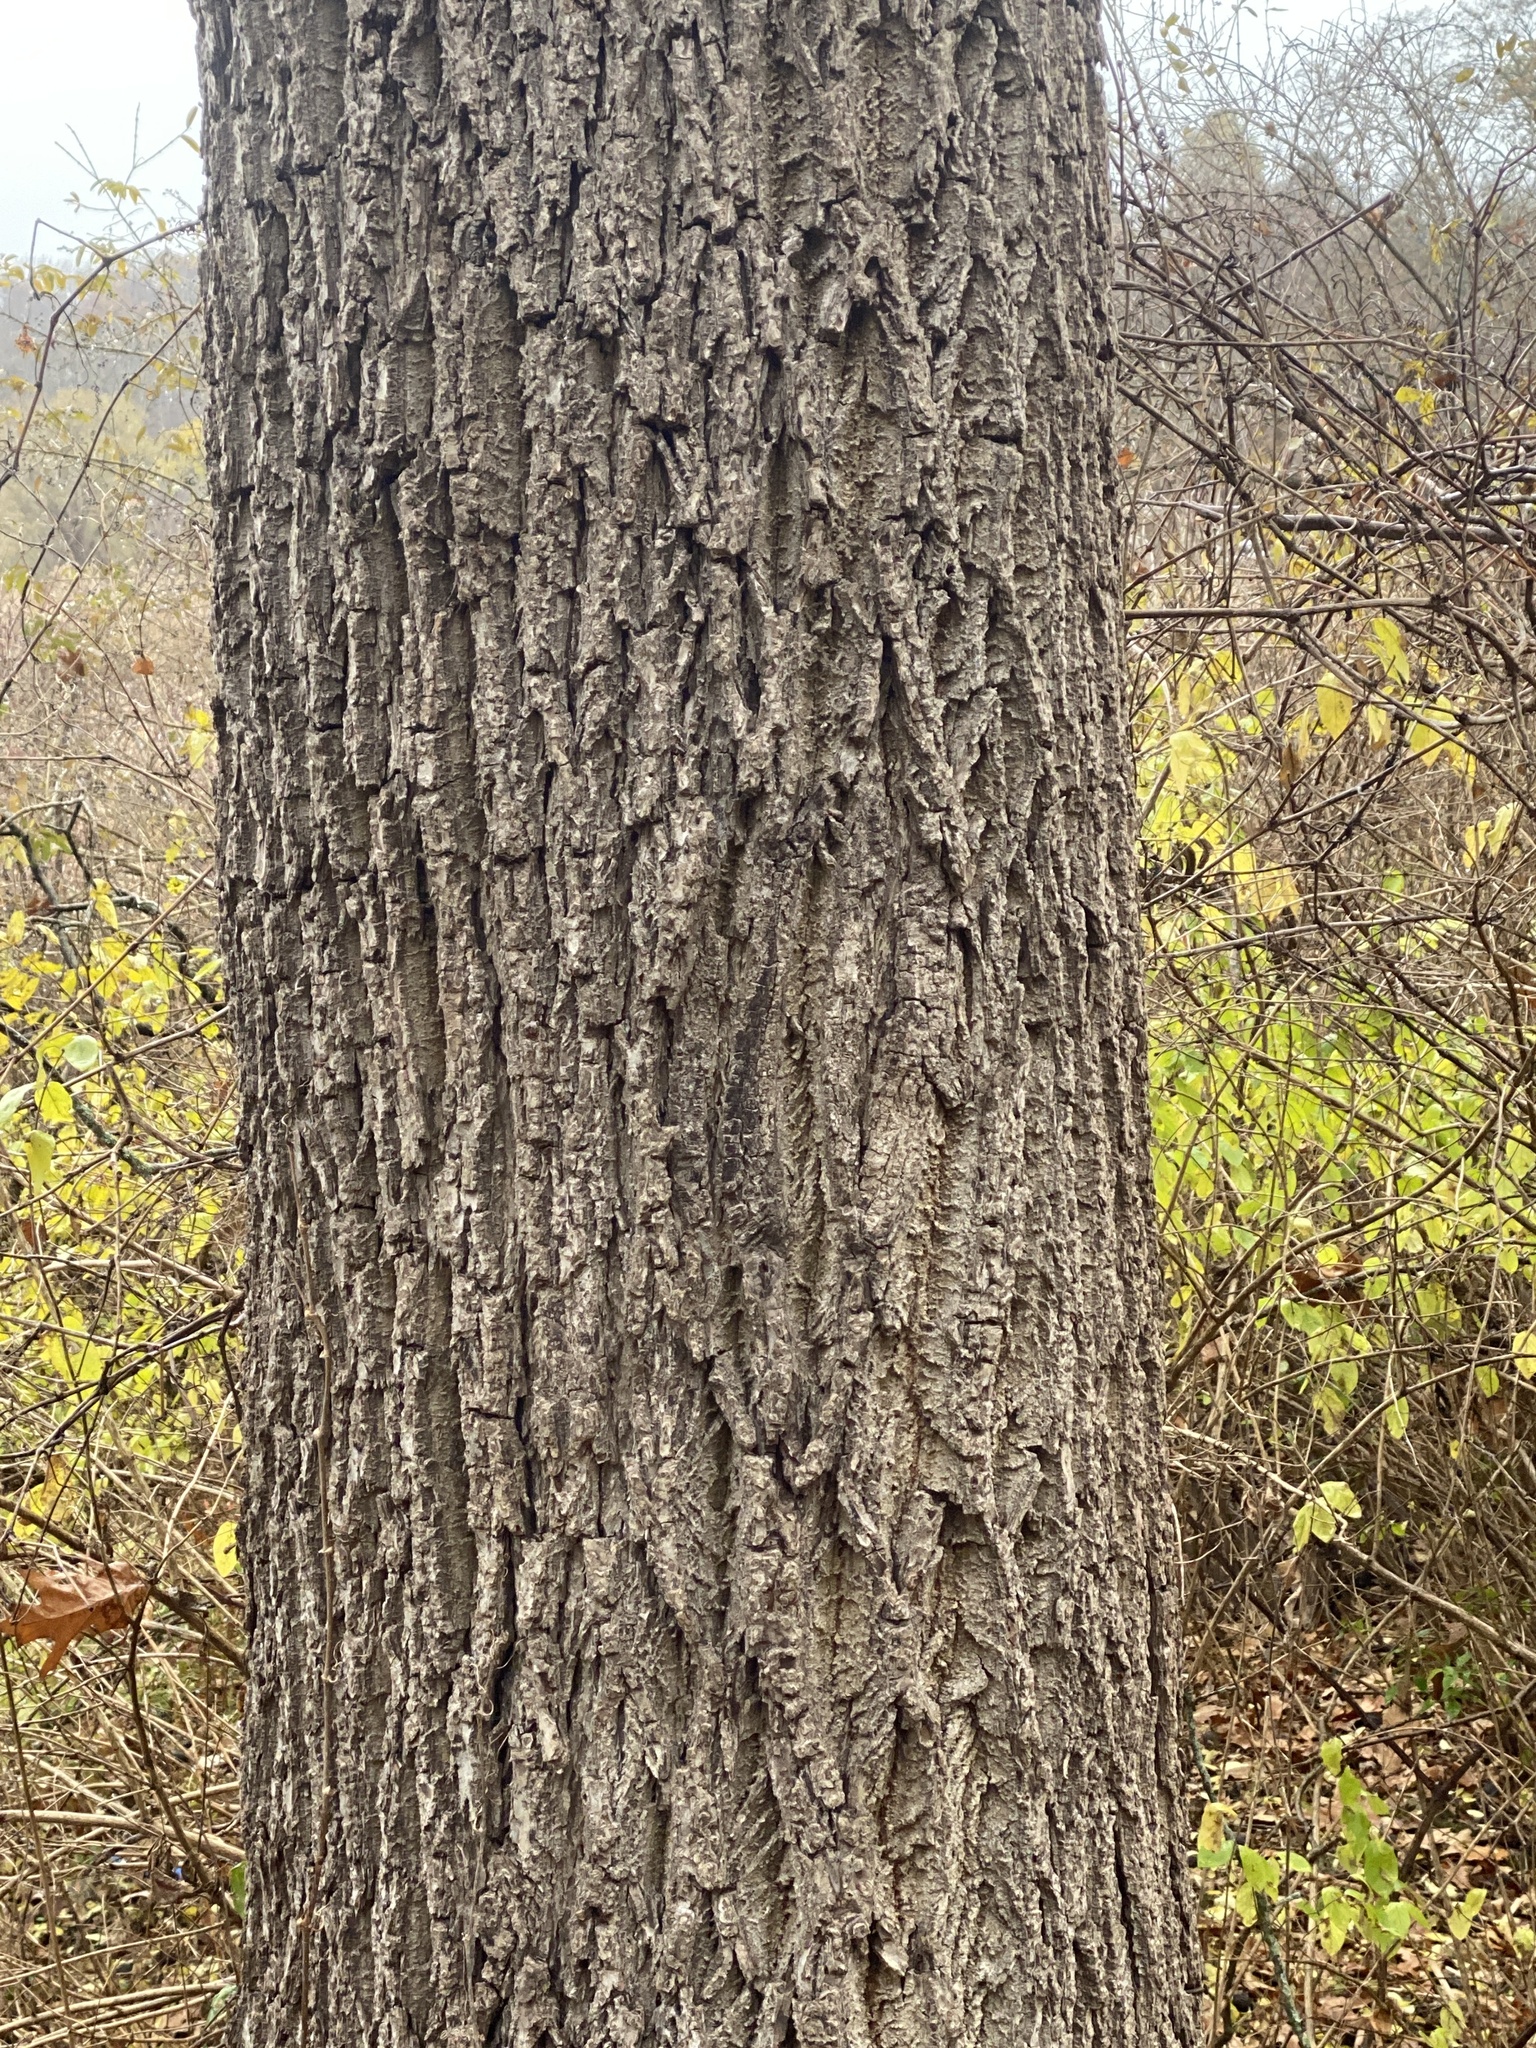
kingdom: Plantae
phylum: Tracheophyta
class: Magnoliopsida
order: Fagales
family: Juglandaceae
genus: Juglans
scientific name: Juglans nigra
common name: Black walnut
